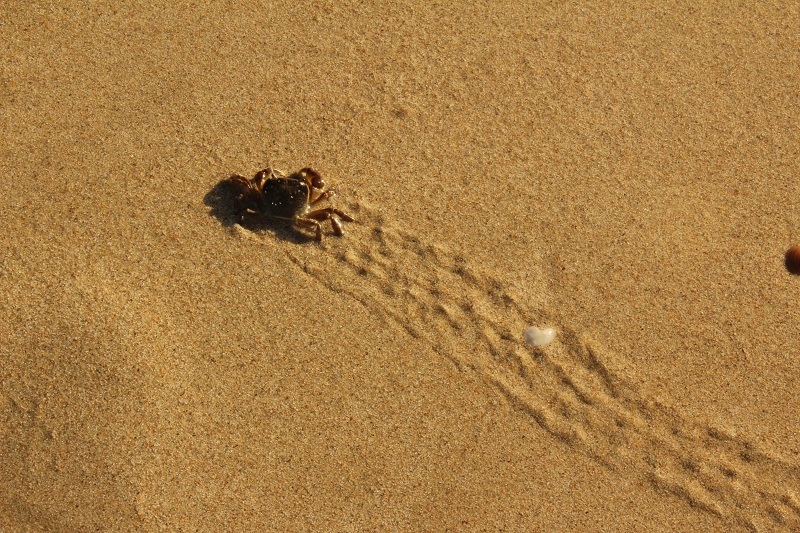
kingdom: Animalia
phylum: Arthropoda
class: Malacostraca
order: Decapoda
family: Varunidae
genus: Cyclograpsus
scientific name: Cyclograpsus punctatus
